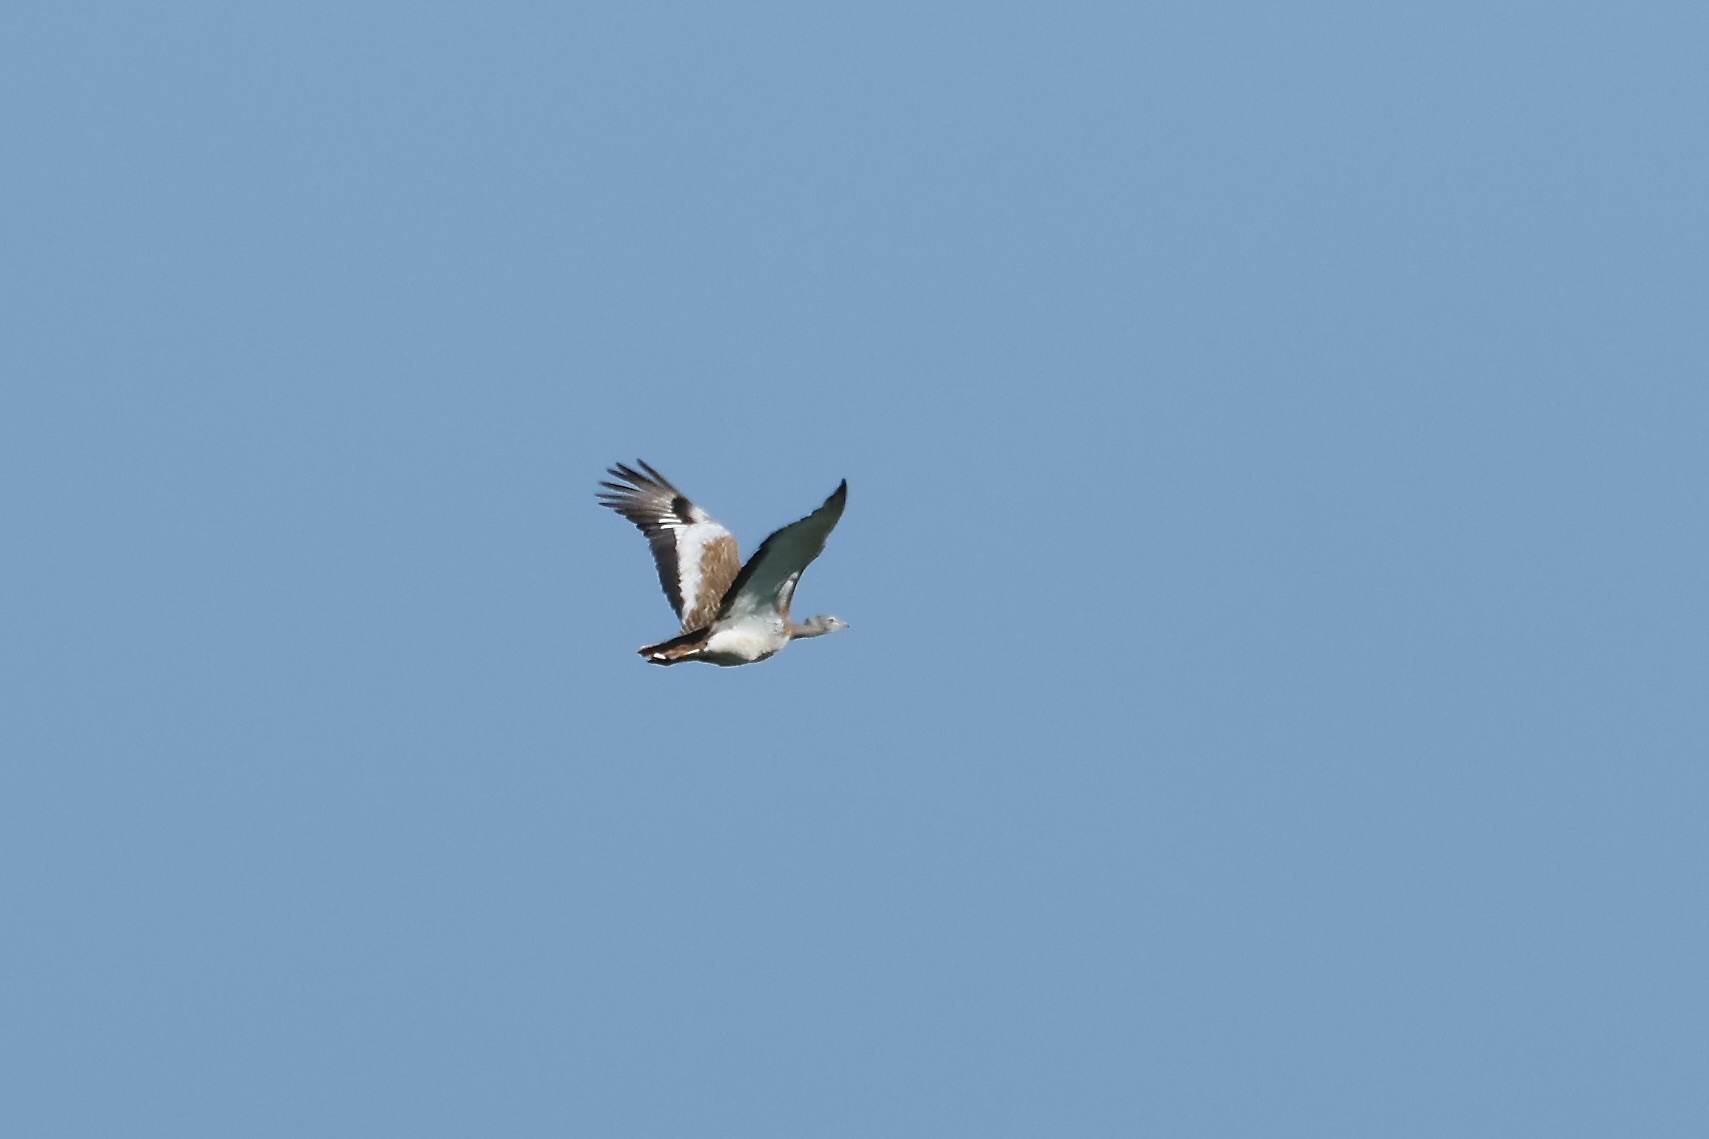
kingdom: Animalia
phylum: Chordata
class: Aves
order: Otidiformes
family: Otididae
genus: Otis
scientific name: Otis tarda
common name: Great bustard
